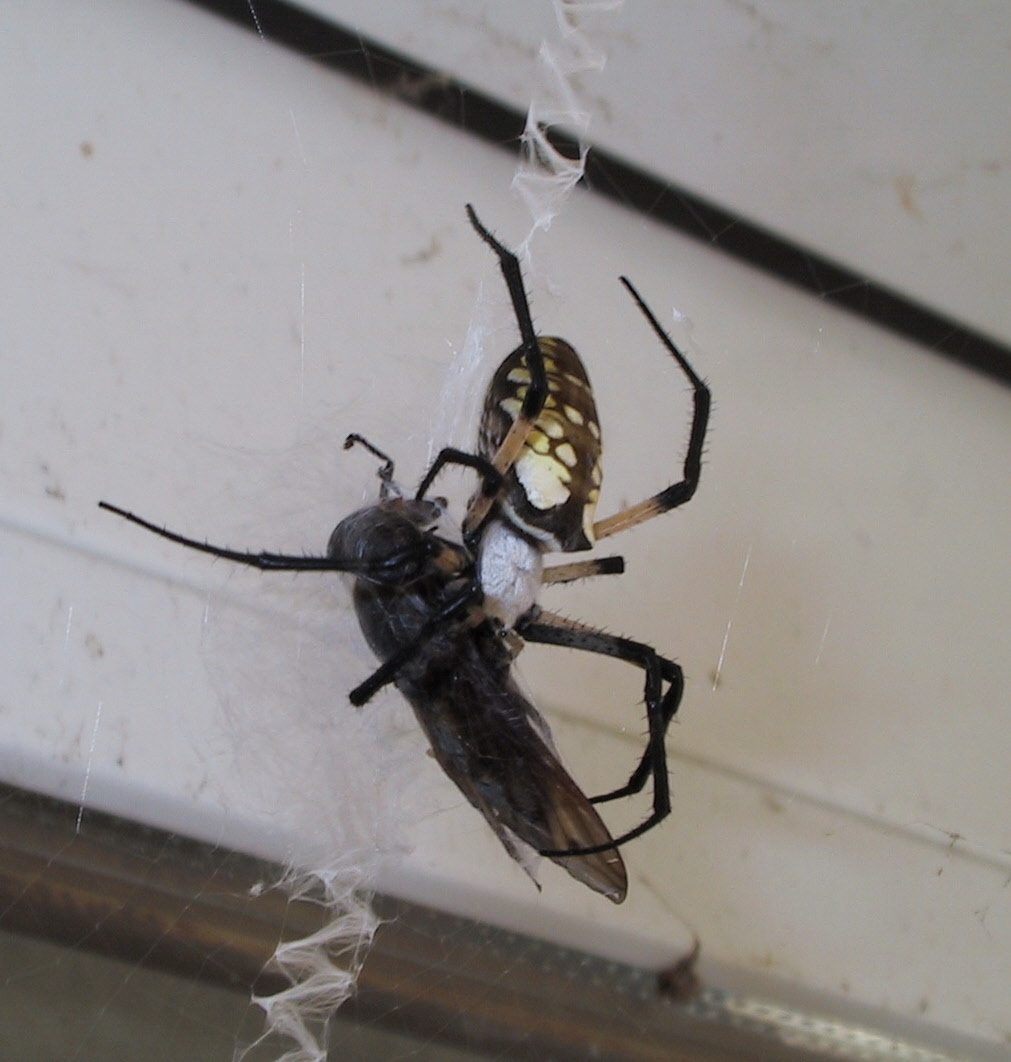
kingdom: Animalia
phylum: Arthropoda
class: Arachnida
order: Araneae
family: Araneidae
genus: Argiope
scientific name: Argiope aurantia
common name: Orb weavers
